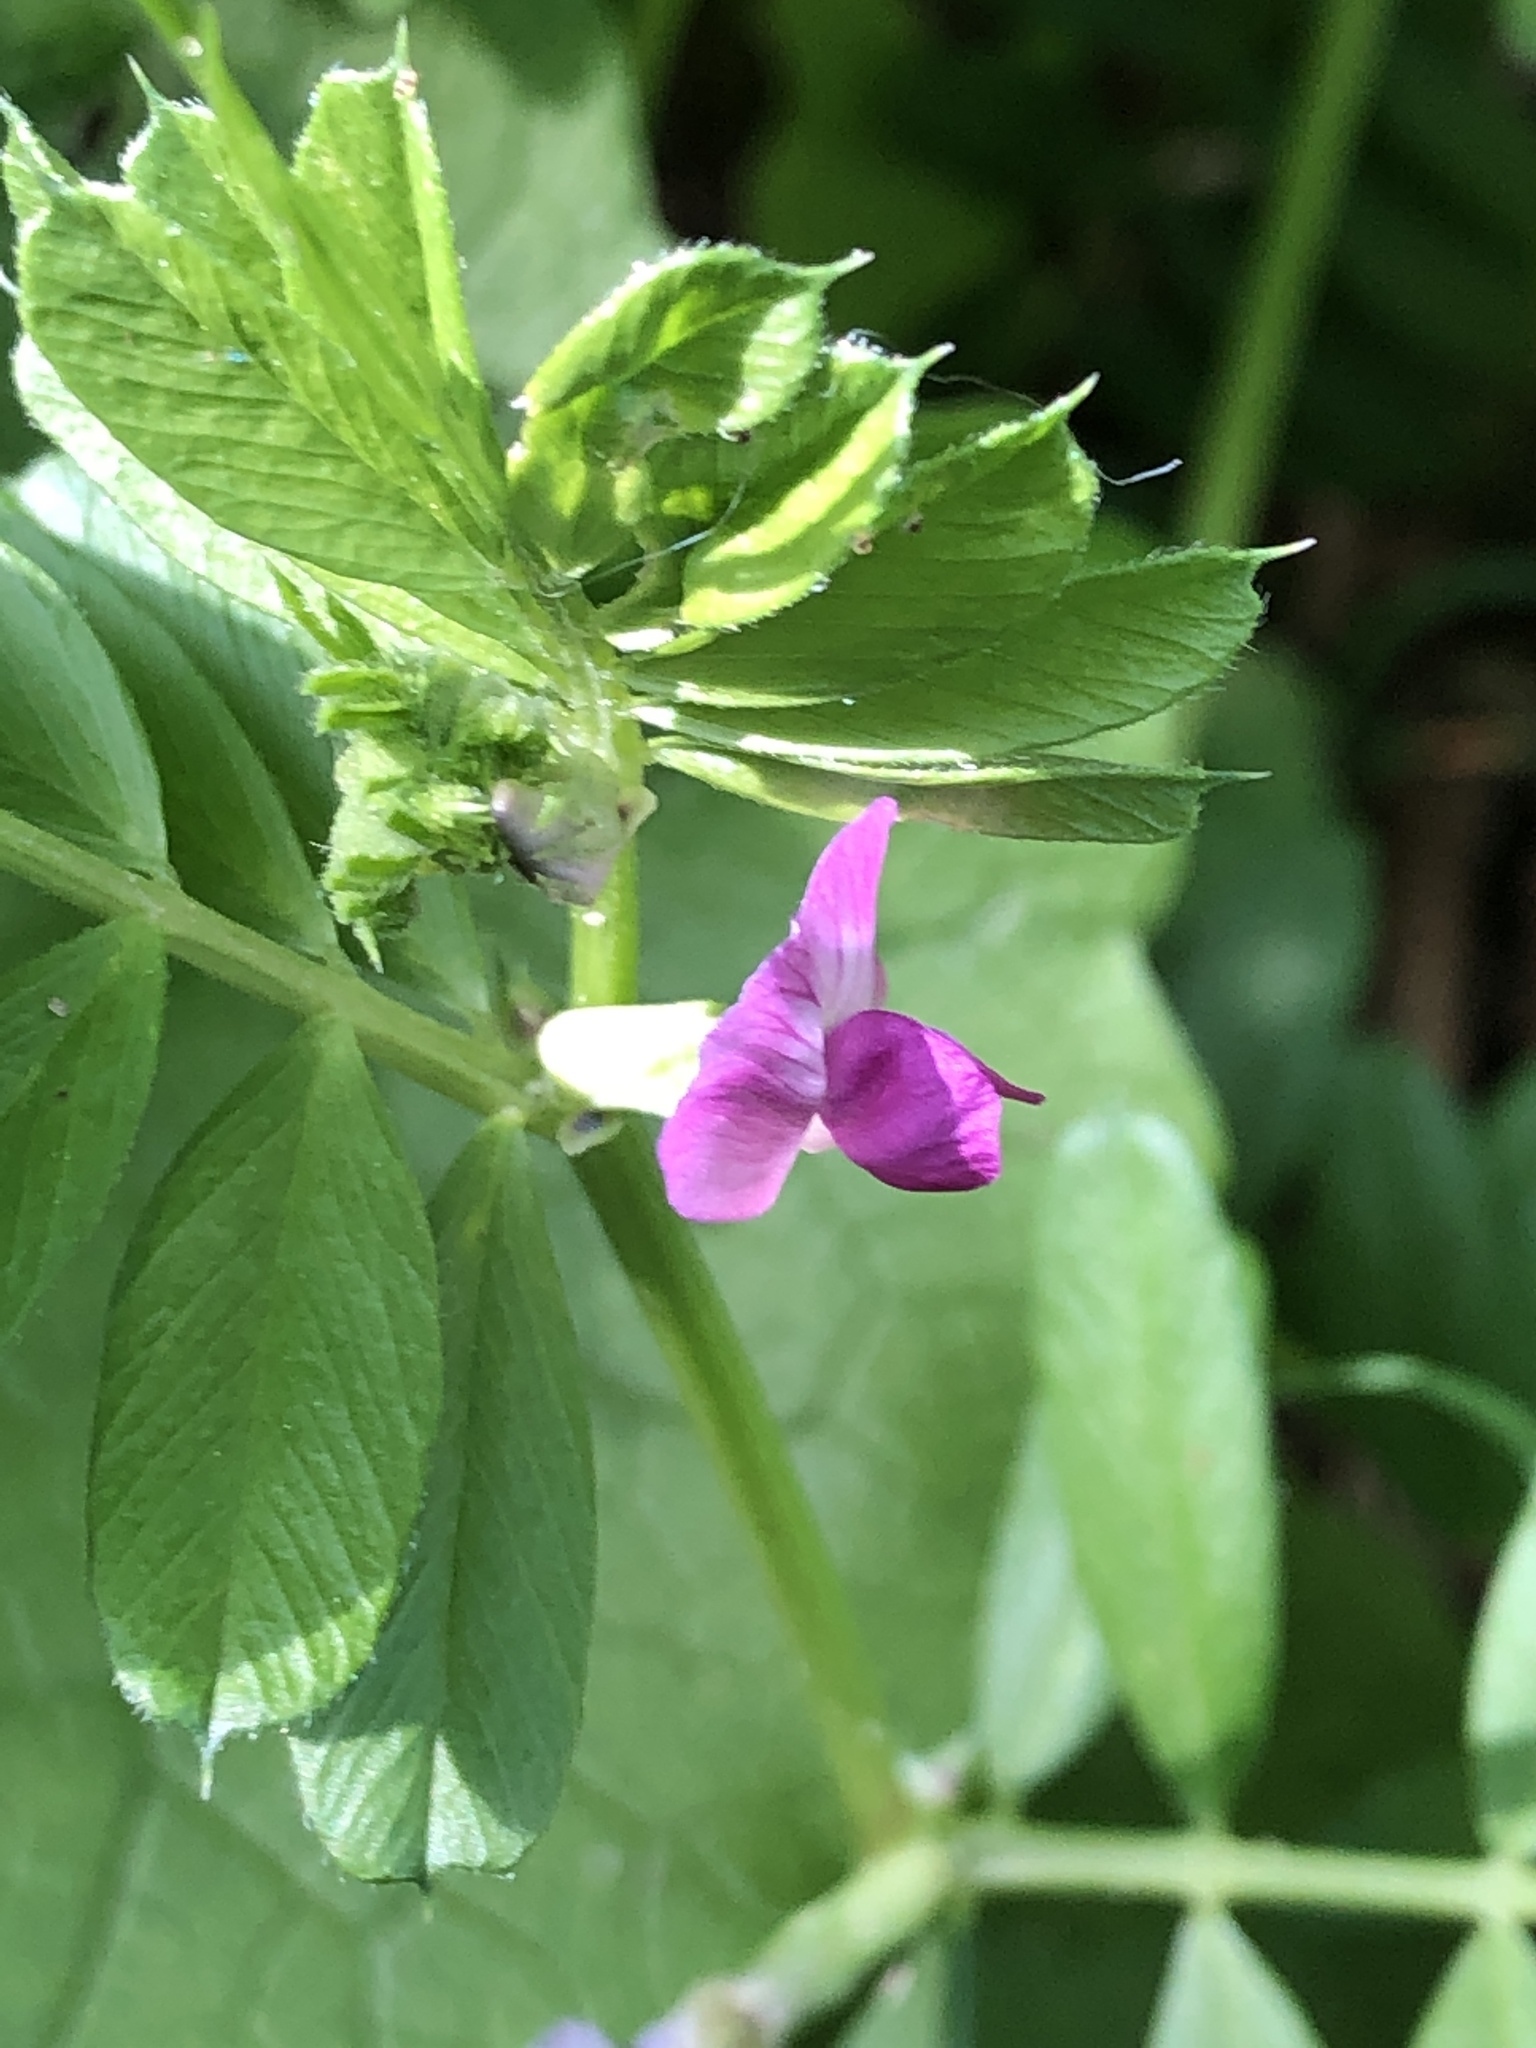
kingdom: Plantae
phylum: Tracheophyta
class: Magnoliopsida
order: Fabales
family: Fabaceae
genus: Vicia
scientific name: Vicia sativa
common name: Garden vetch
